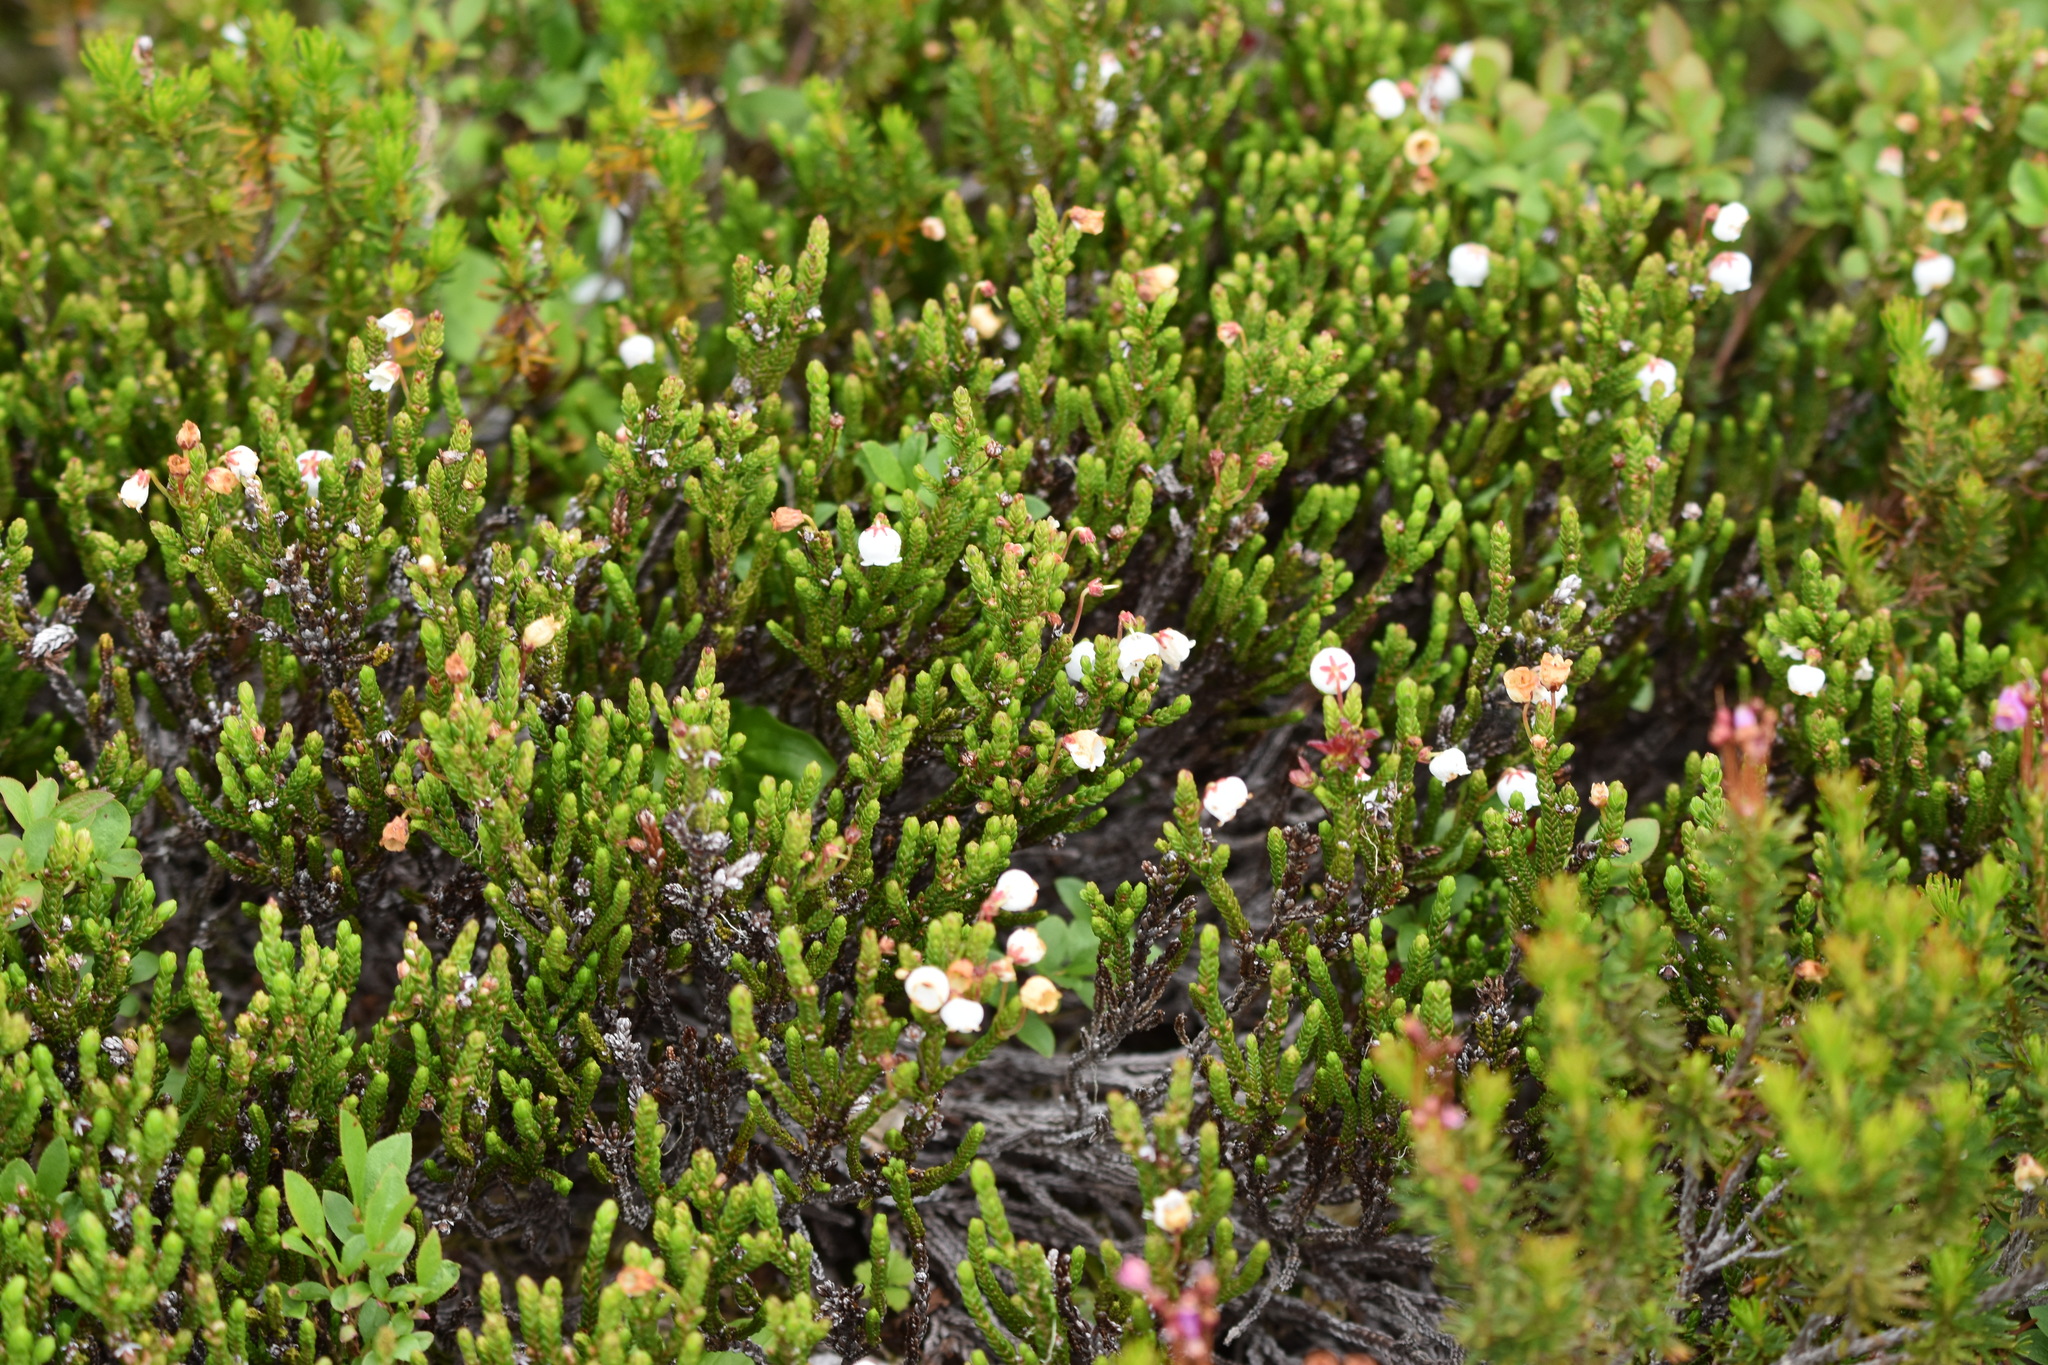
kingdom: Plantae
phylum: Tracheophyta
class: Magnoliopsida
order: Ericales
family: Ericaceae
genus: Cassiope
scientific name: Cassiope mertensiana
